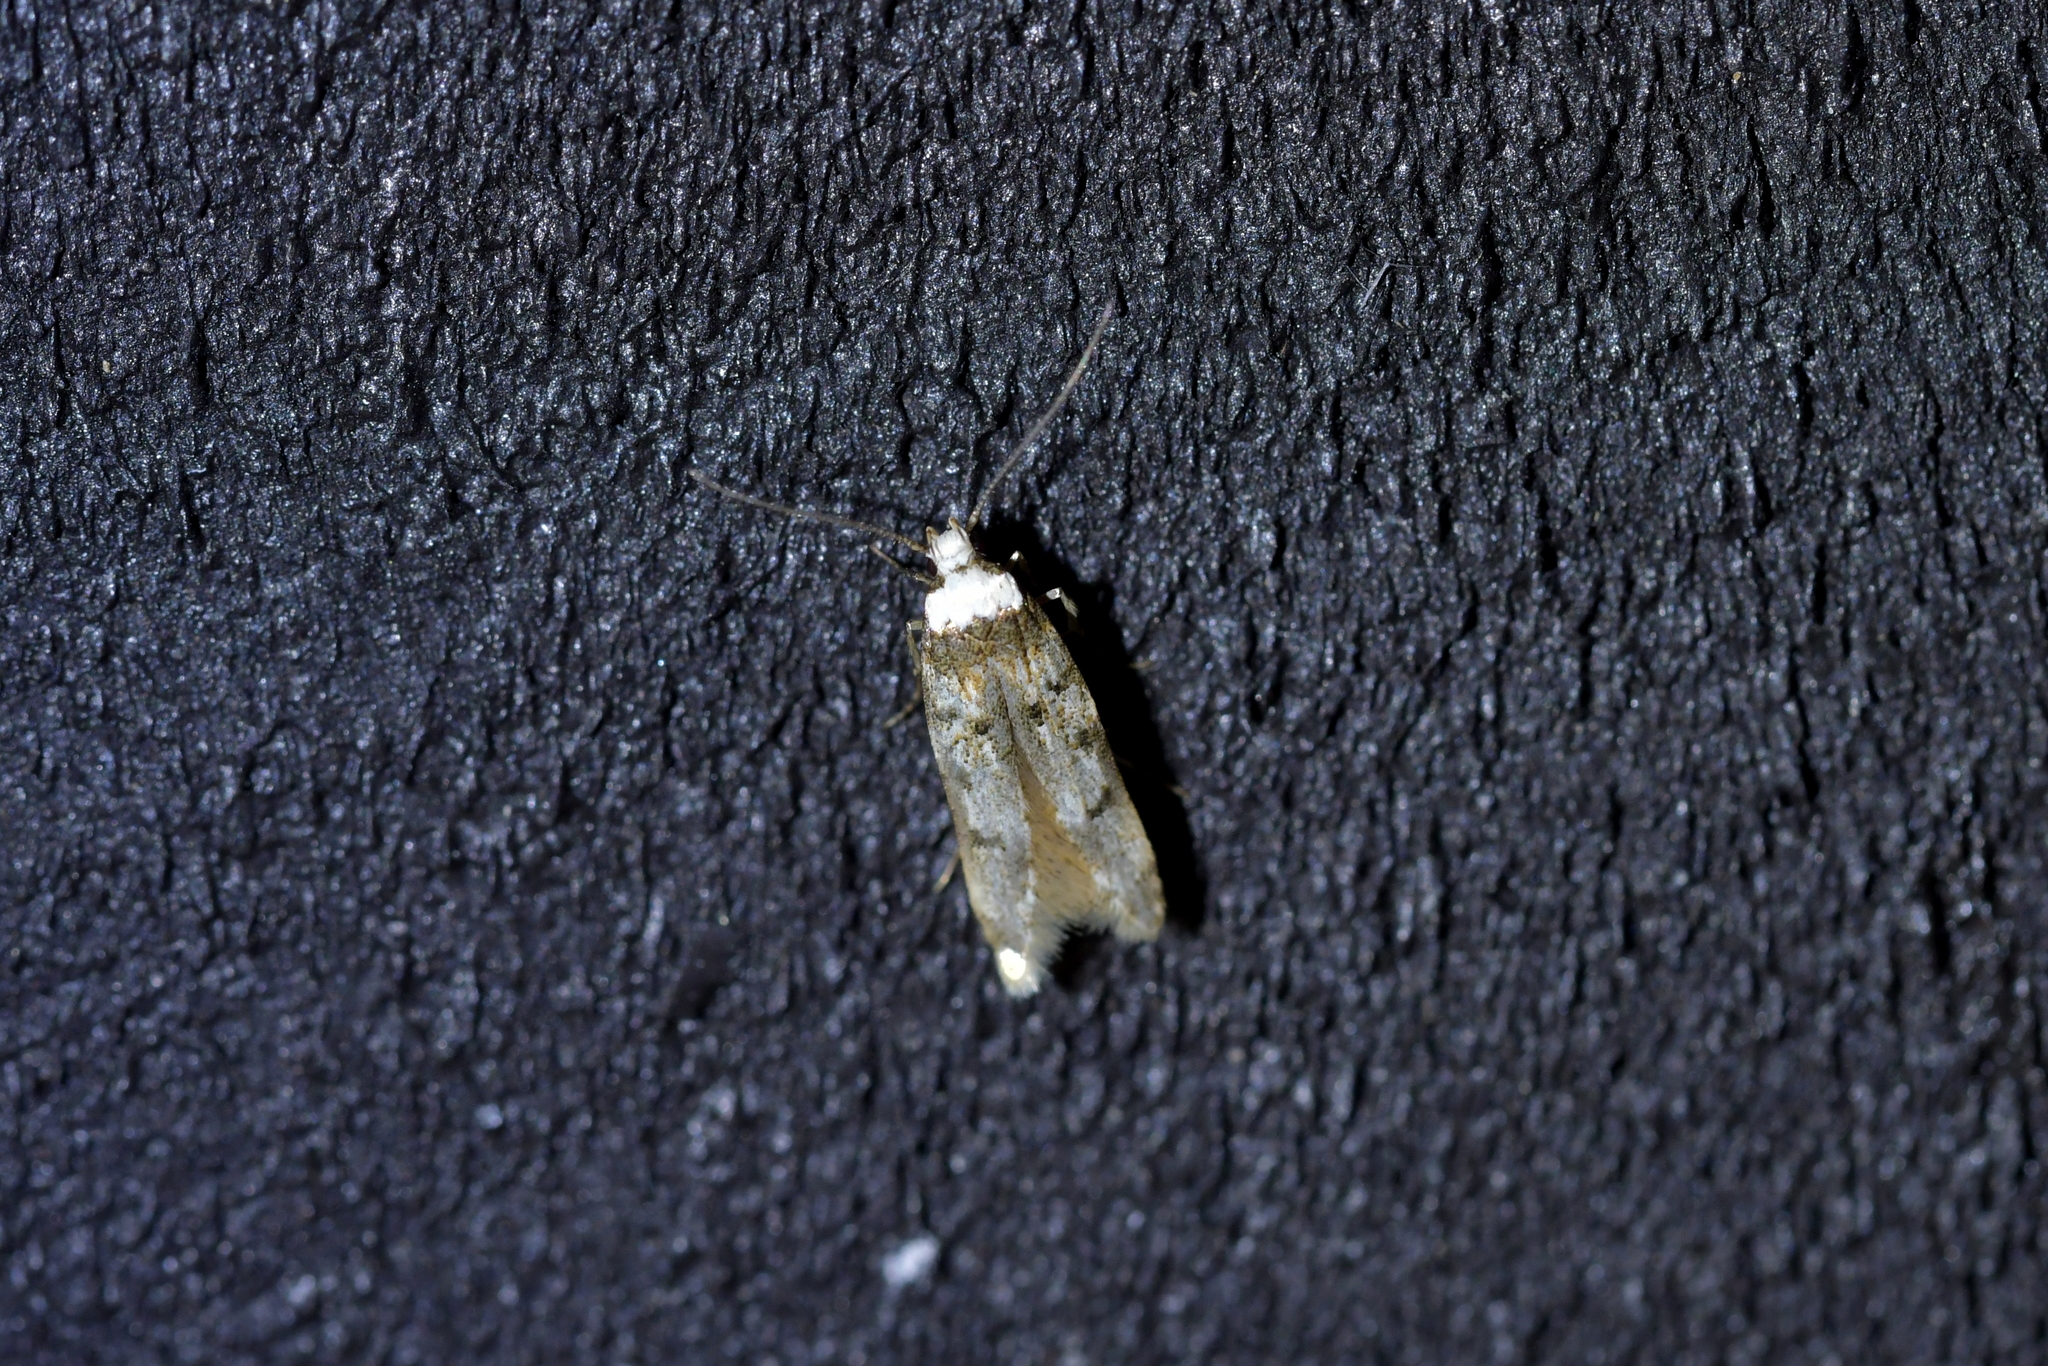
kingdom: Animalia
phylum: Arthropoda
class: Insecta
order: Lepidoptera
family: Oecophoridae
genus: Endrosis
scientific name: Endrosis sarcitrella
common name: White-shouldered house moth
